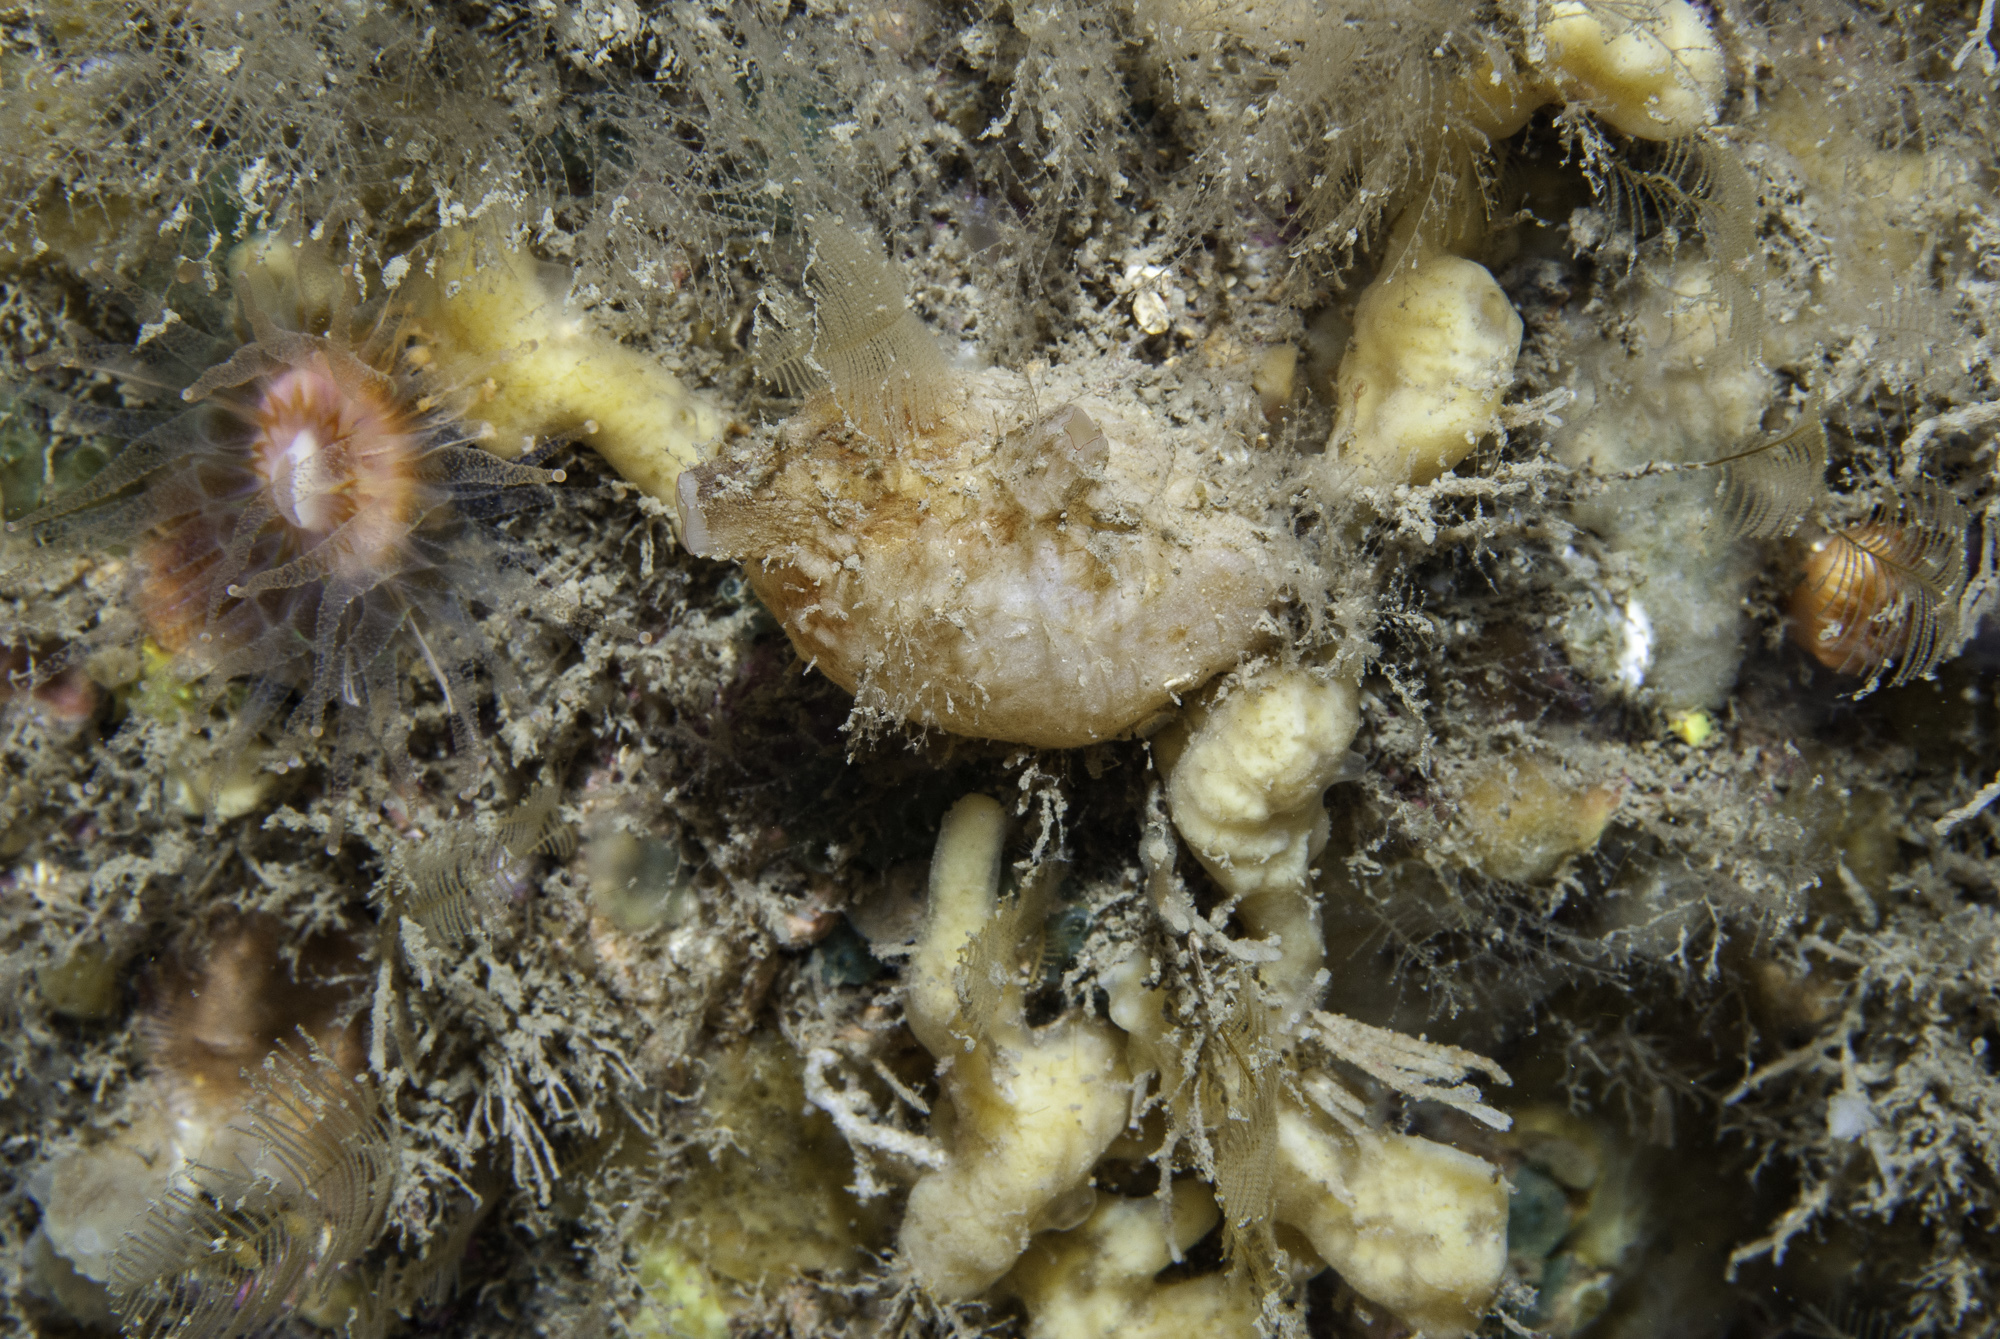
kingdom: Animalia
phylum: Chordata
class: Ascidiacea
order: Stolidobranchia
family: Styelidae
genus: Polycarpa
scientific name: Polycarpa pomaria
